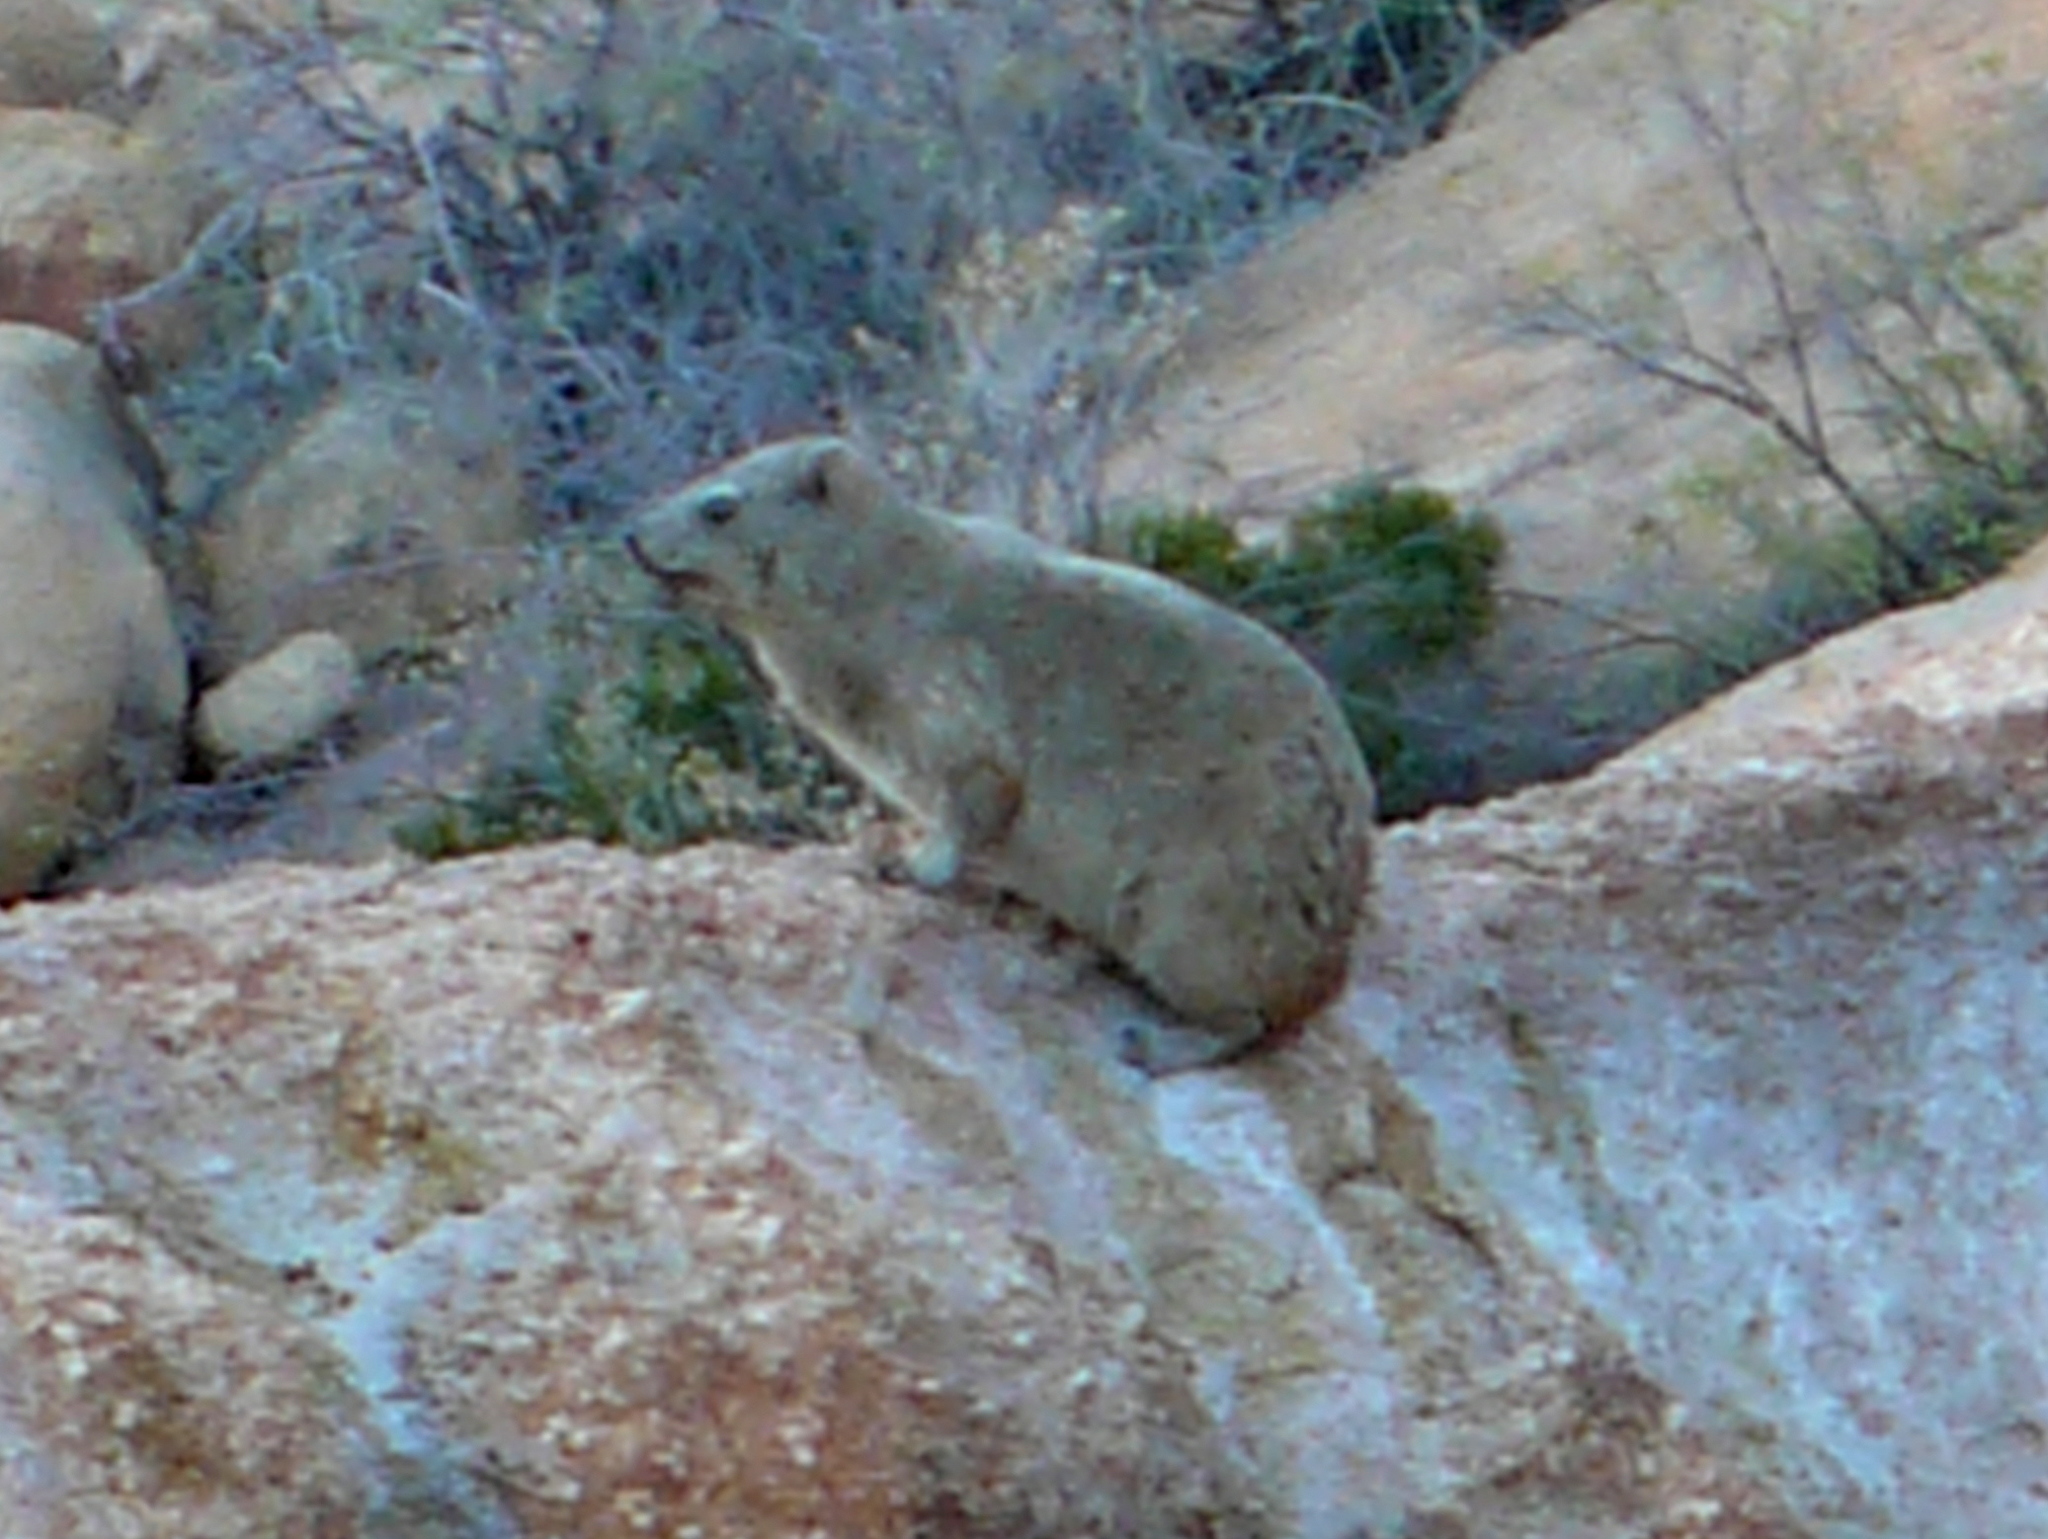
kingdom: Animalia
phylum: Chordata
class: Mammalia
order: Hyracoidea
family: Procaviidae
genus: Procavia
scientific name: Procavia capensis
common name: Rock hyrax
